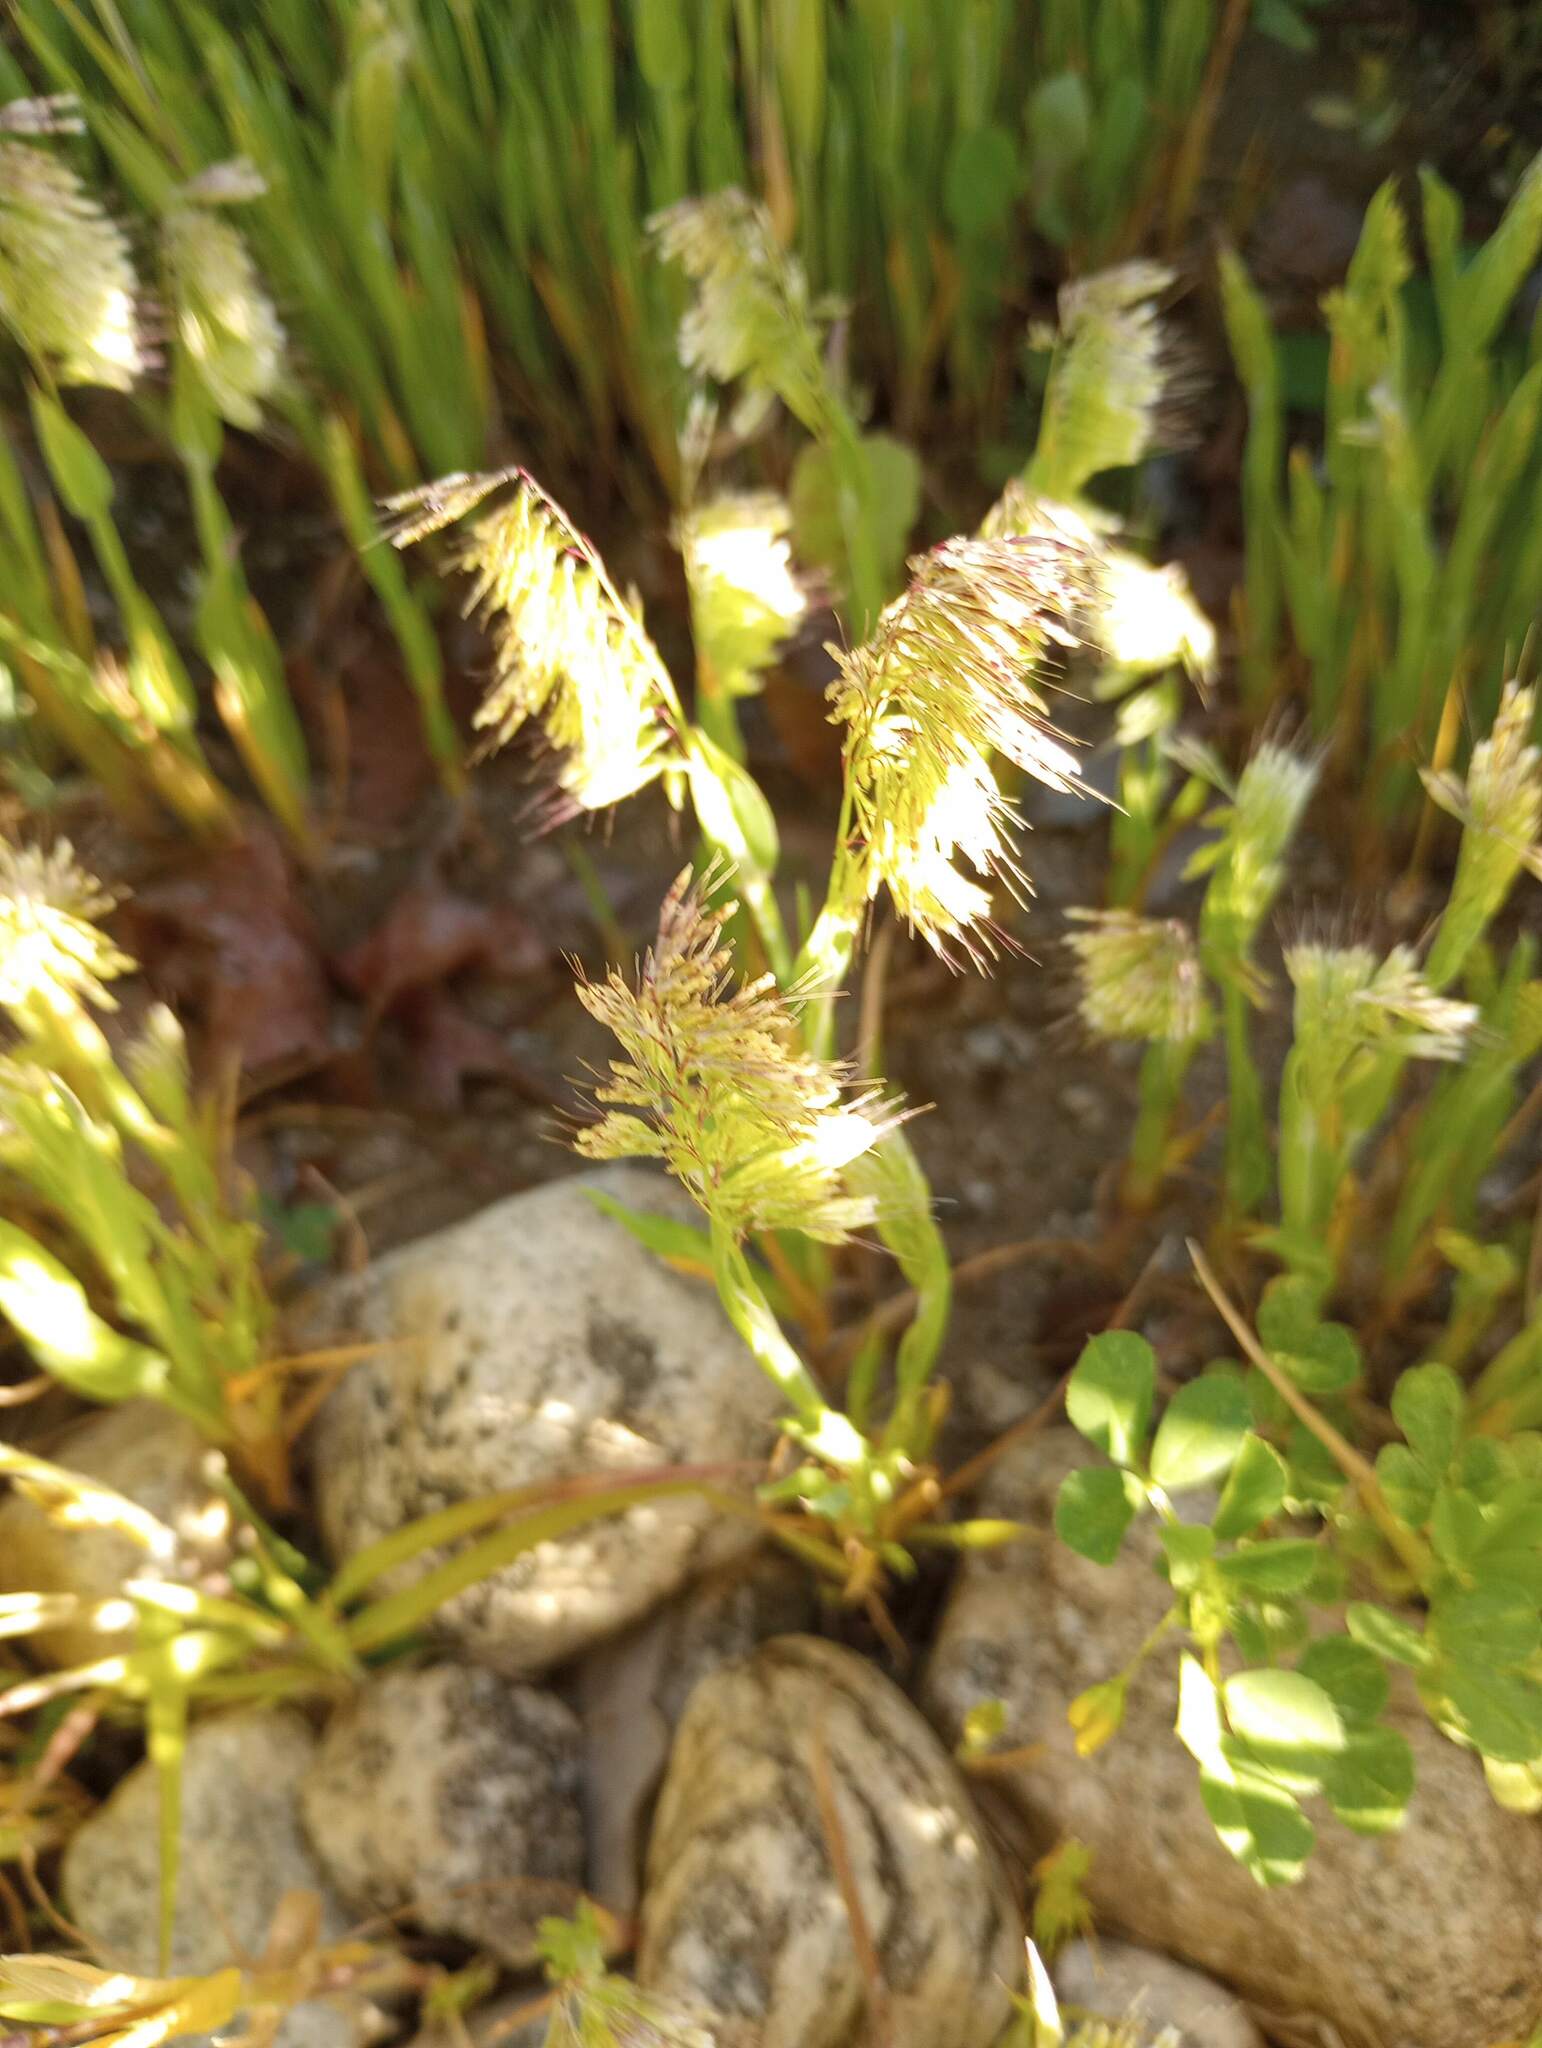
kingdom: Plantae
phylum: Tracheophyta
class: Liliopsida
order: Poales
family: Poaceae
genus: Lamarckia
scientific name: Lamarckia aurea
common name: Golden dog's-tail
